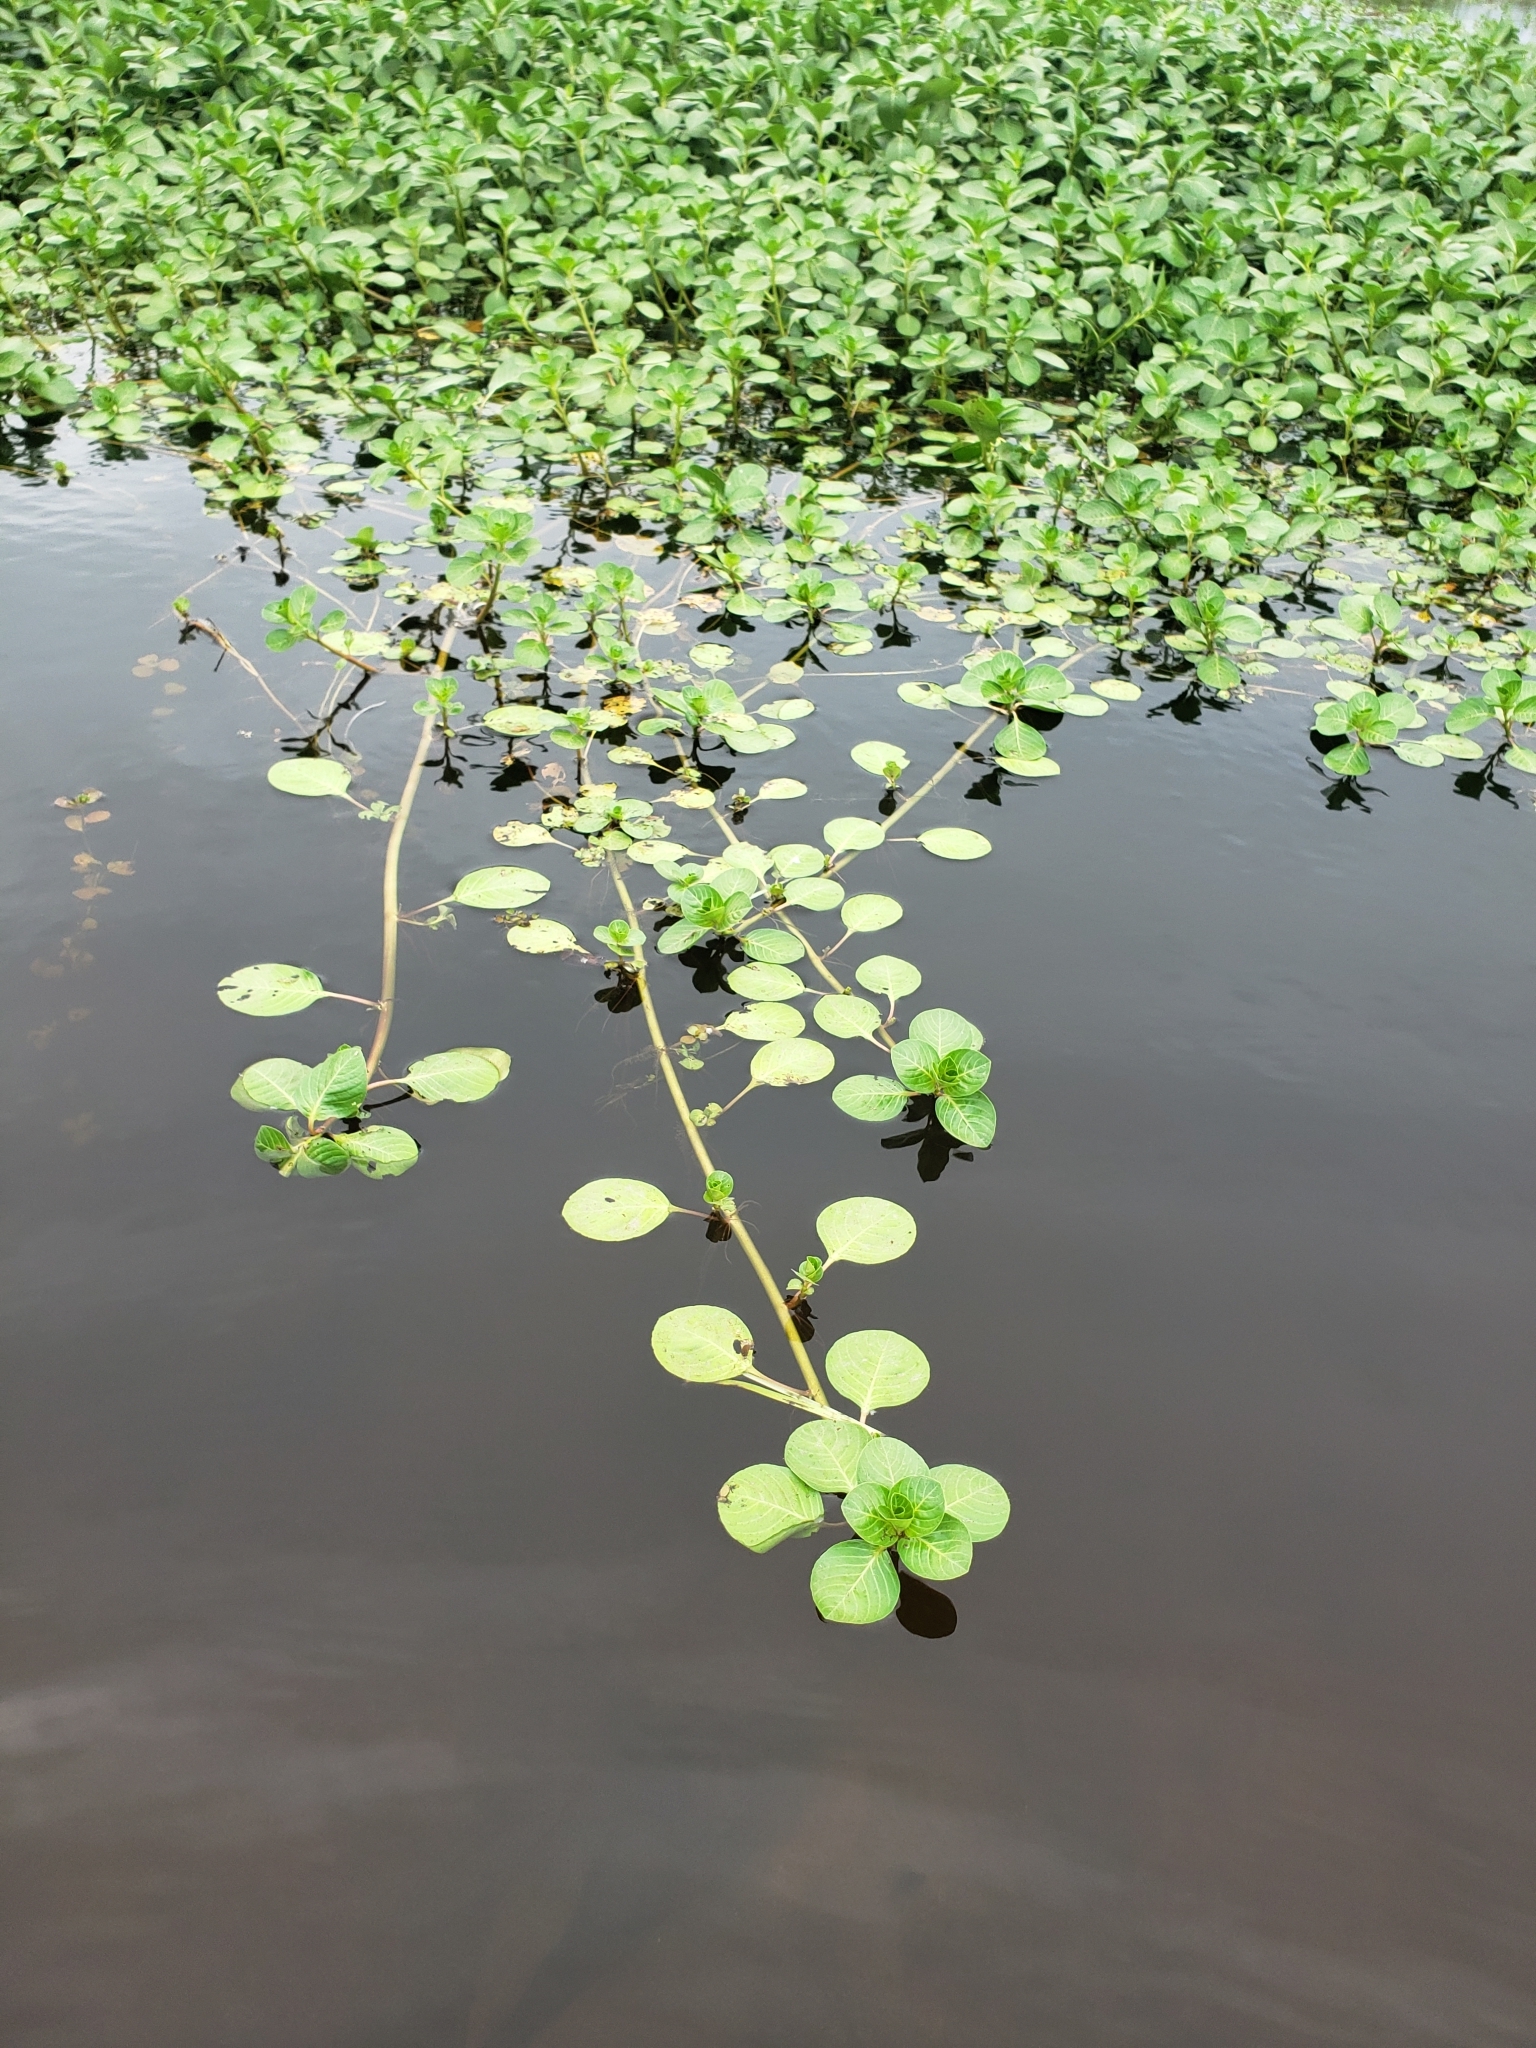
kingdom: Plantae
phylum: Tracheophyta
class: Magnoliopsida
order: Myrtales
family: Onagraceae
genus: Ludwigia
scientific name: Ludwigia peploides
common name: Floating primrose-willow
